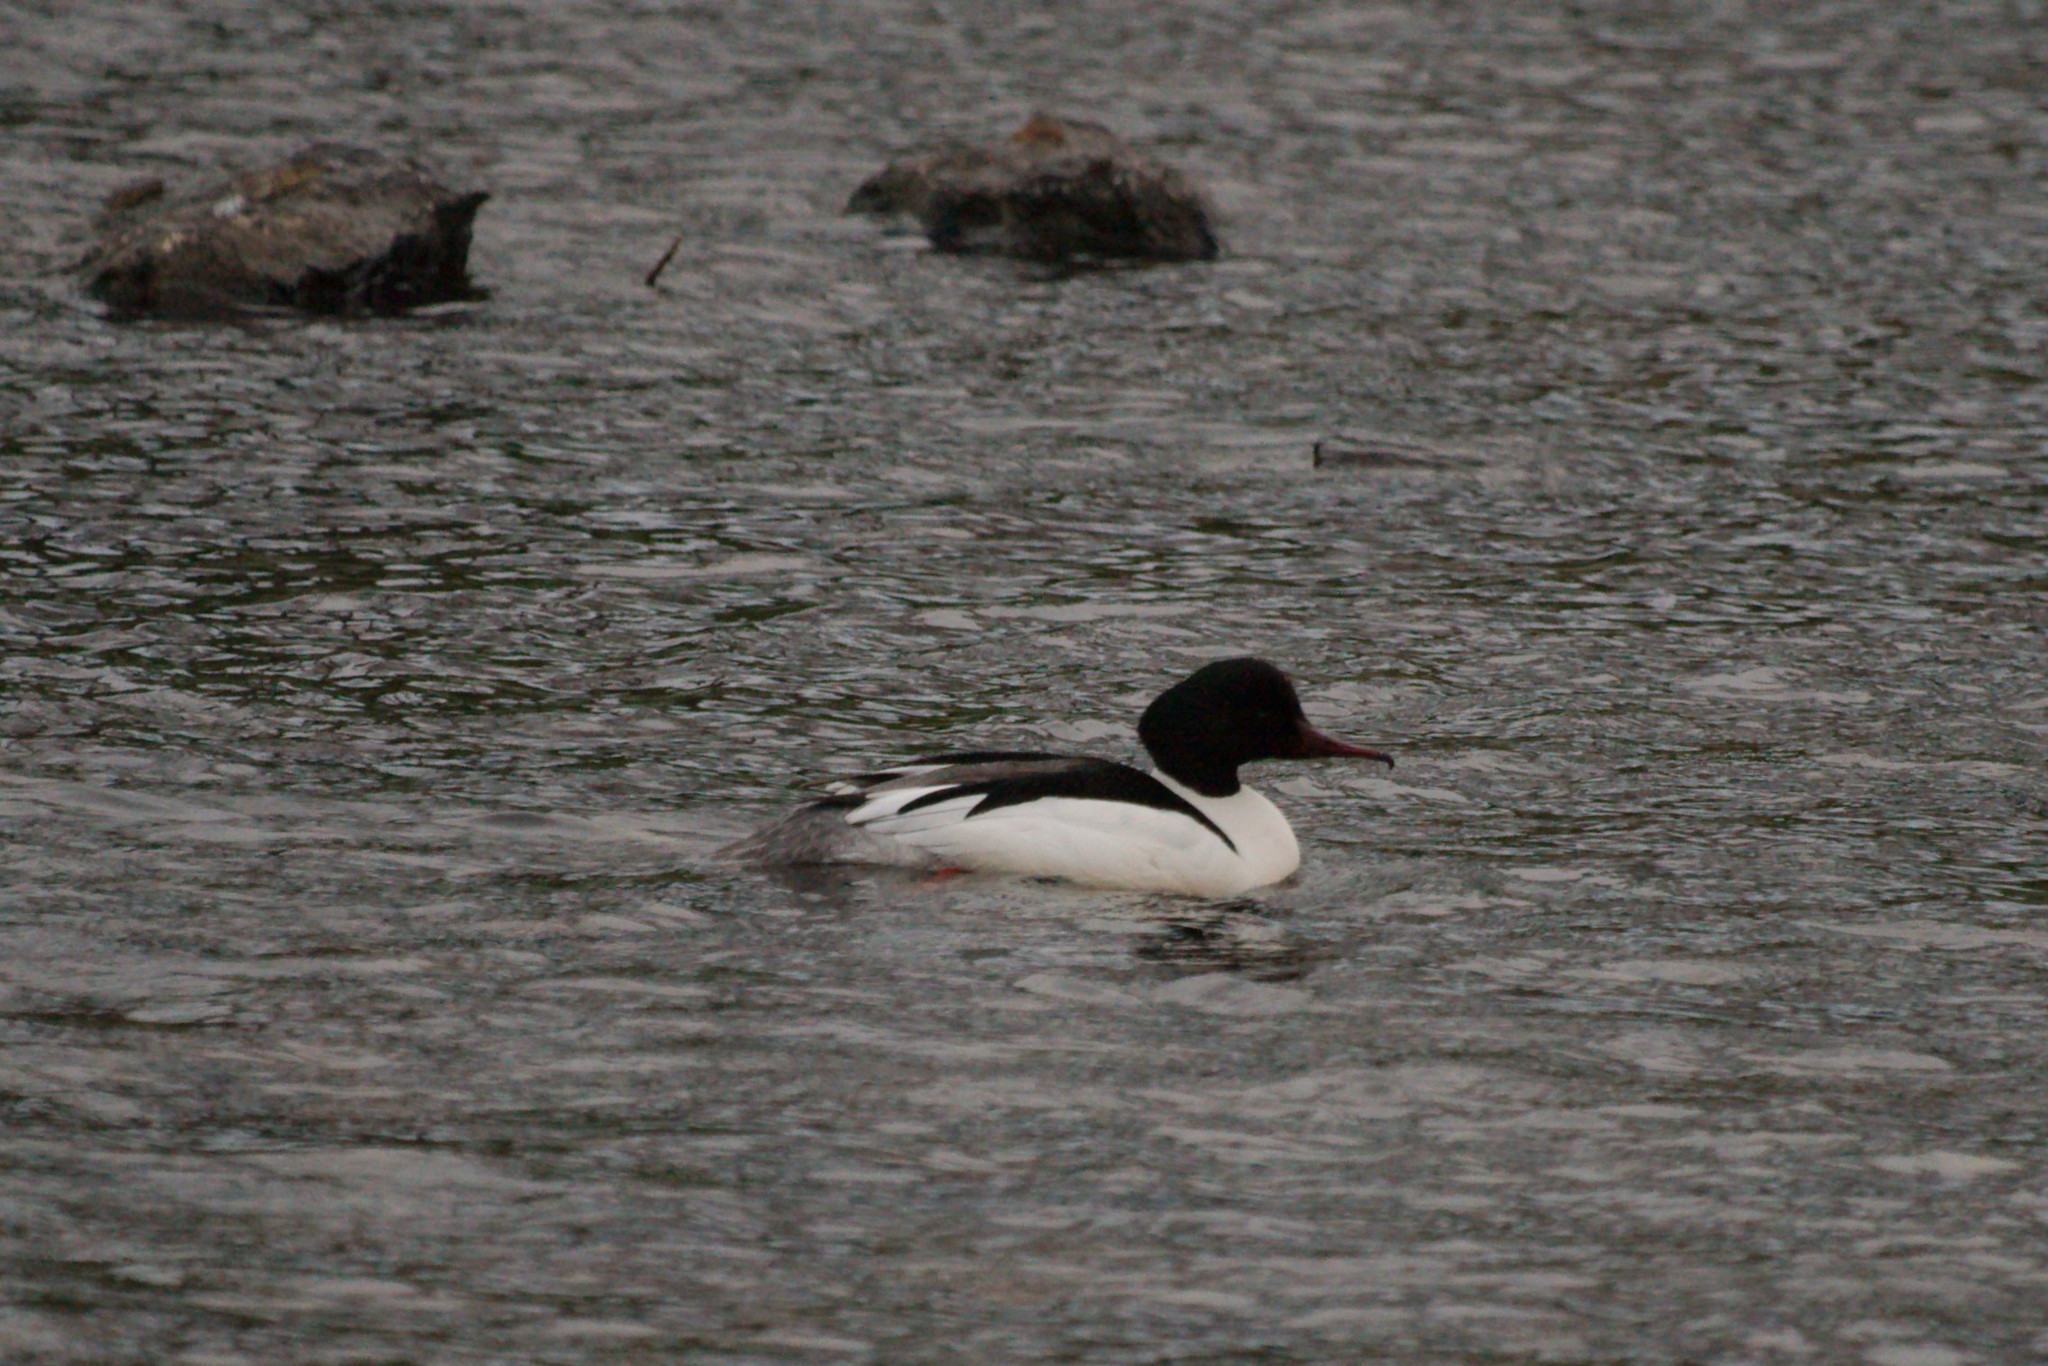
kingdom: Animalia
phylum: Chordata
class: Aves
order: Anseriformes
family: Anatidae
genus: Mergus
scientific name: Mergus merganser
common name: Common merganser
